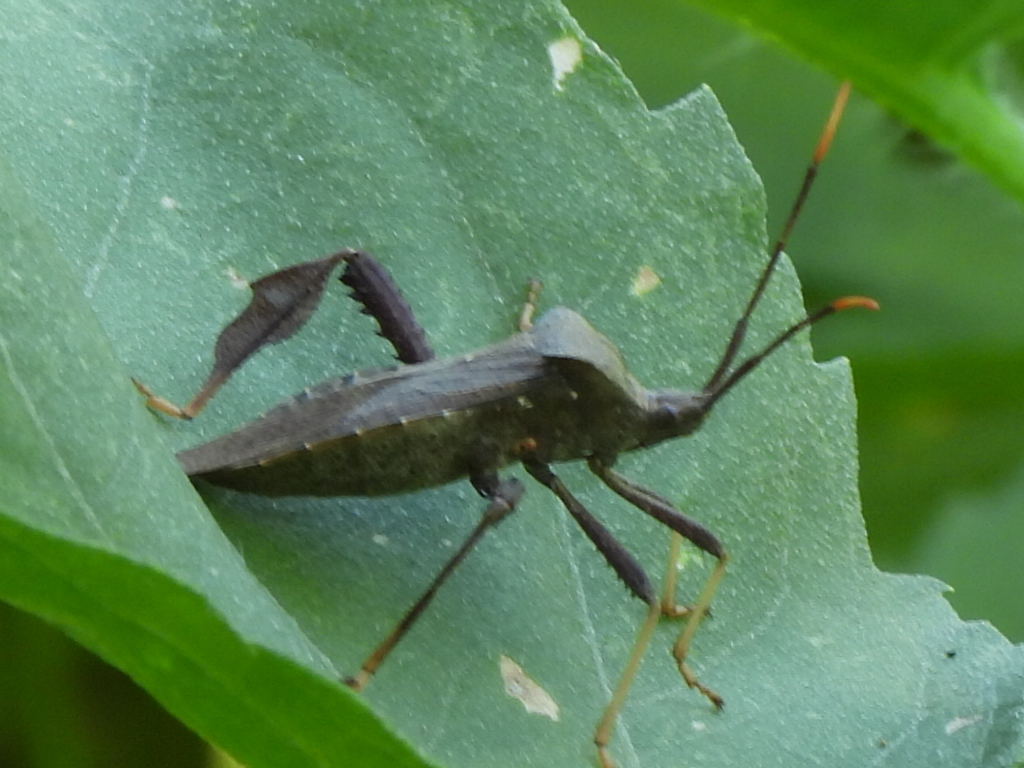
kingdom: Animalia
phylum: Arthropoda
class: Insecta
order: Hemiptera
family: Coreidae
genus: Acanthocephala
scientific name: Acanthocephala terminalis
